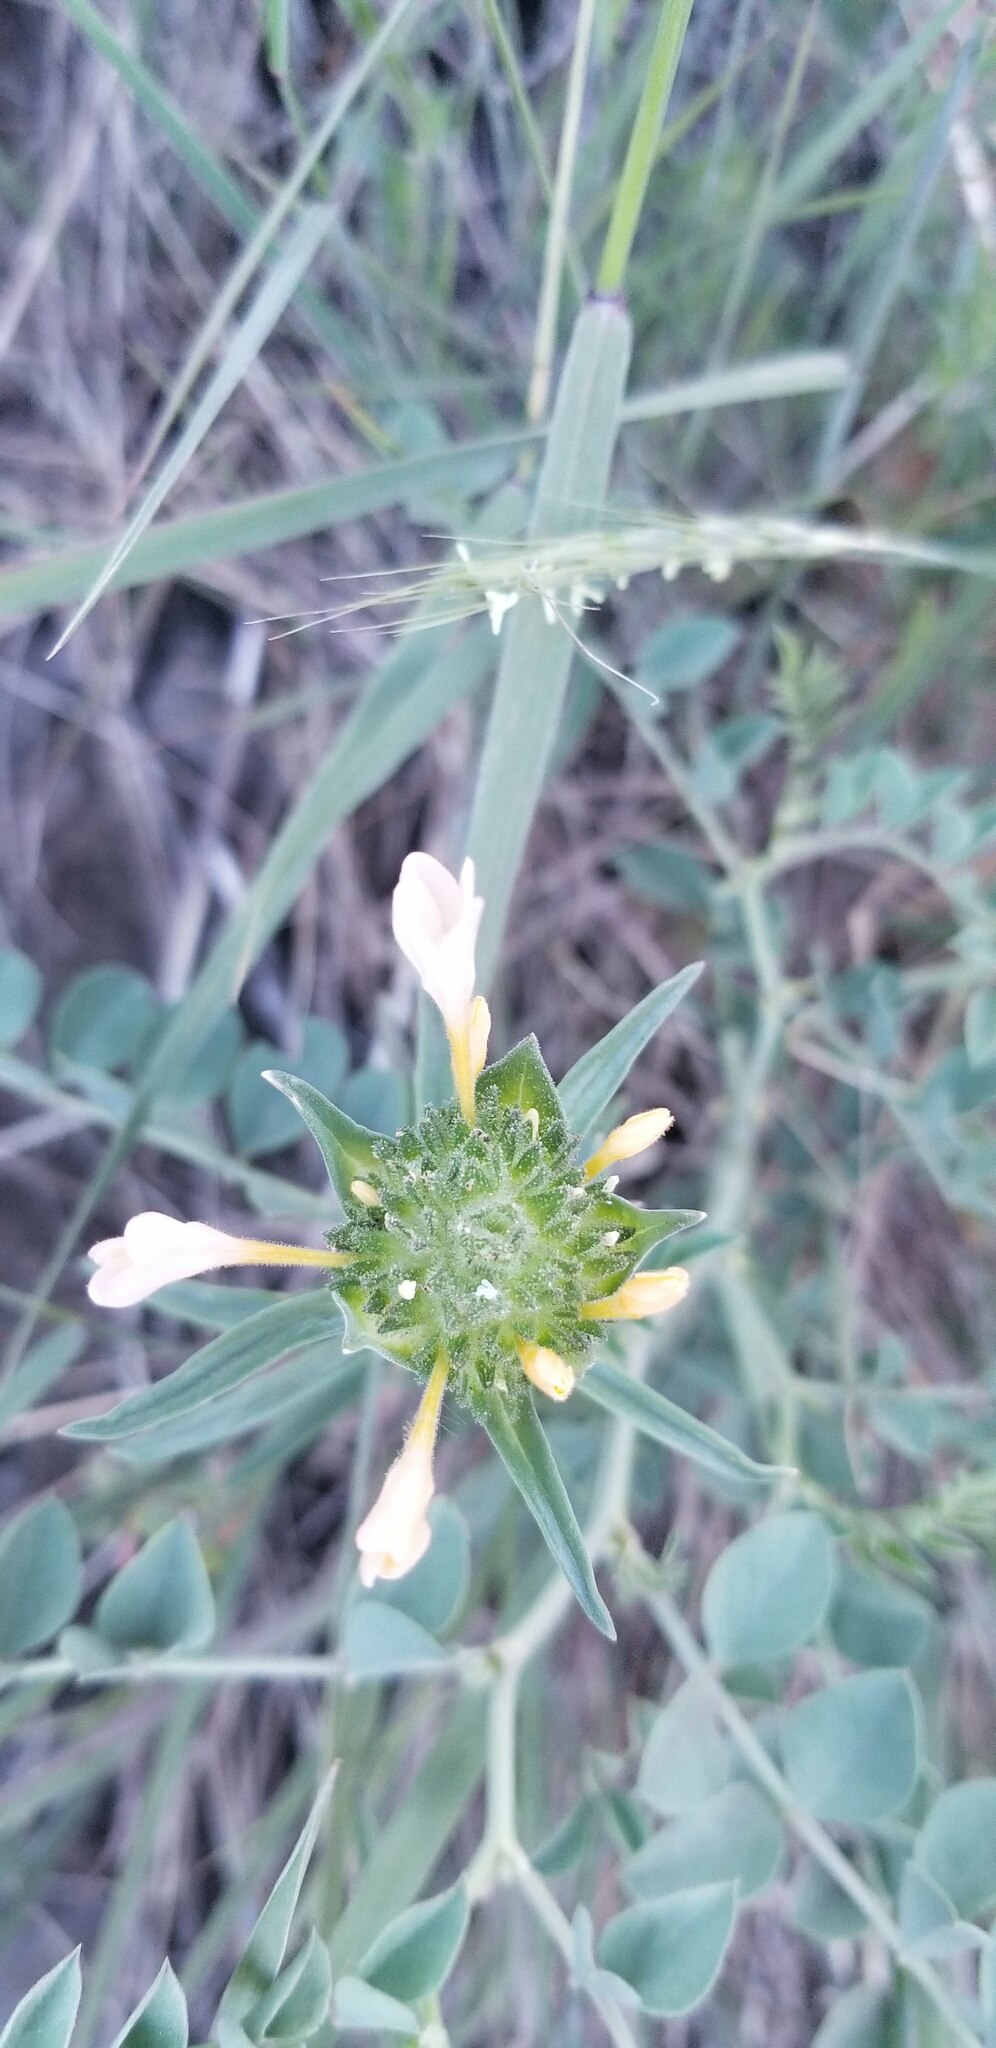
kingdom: Plantae
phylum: Tracheophyta
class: Magnoliopsida
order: Ericales
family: Polemoniaceae
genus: Collomia
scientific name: Collomia grandiflora
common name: California strawflower
